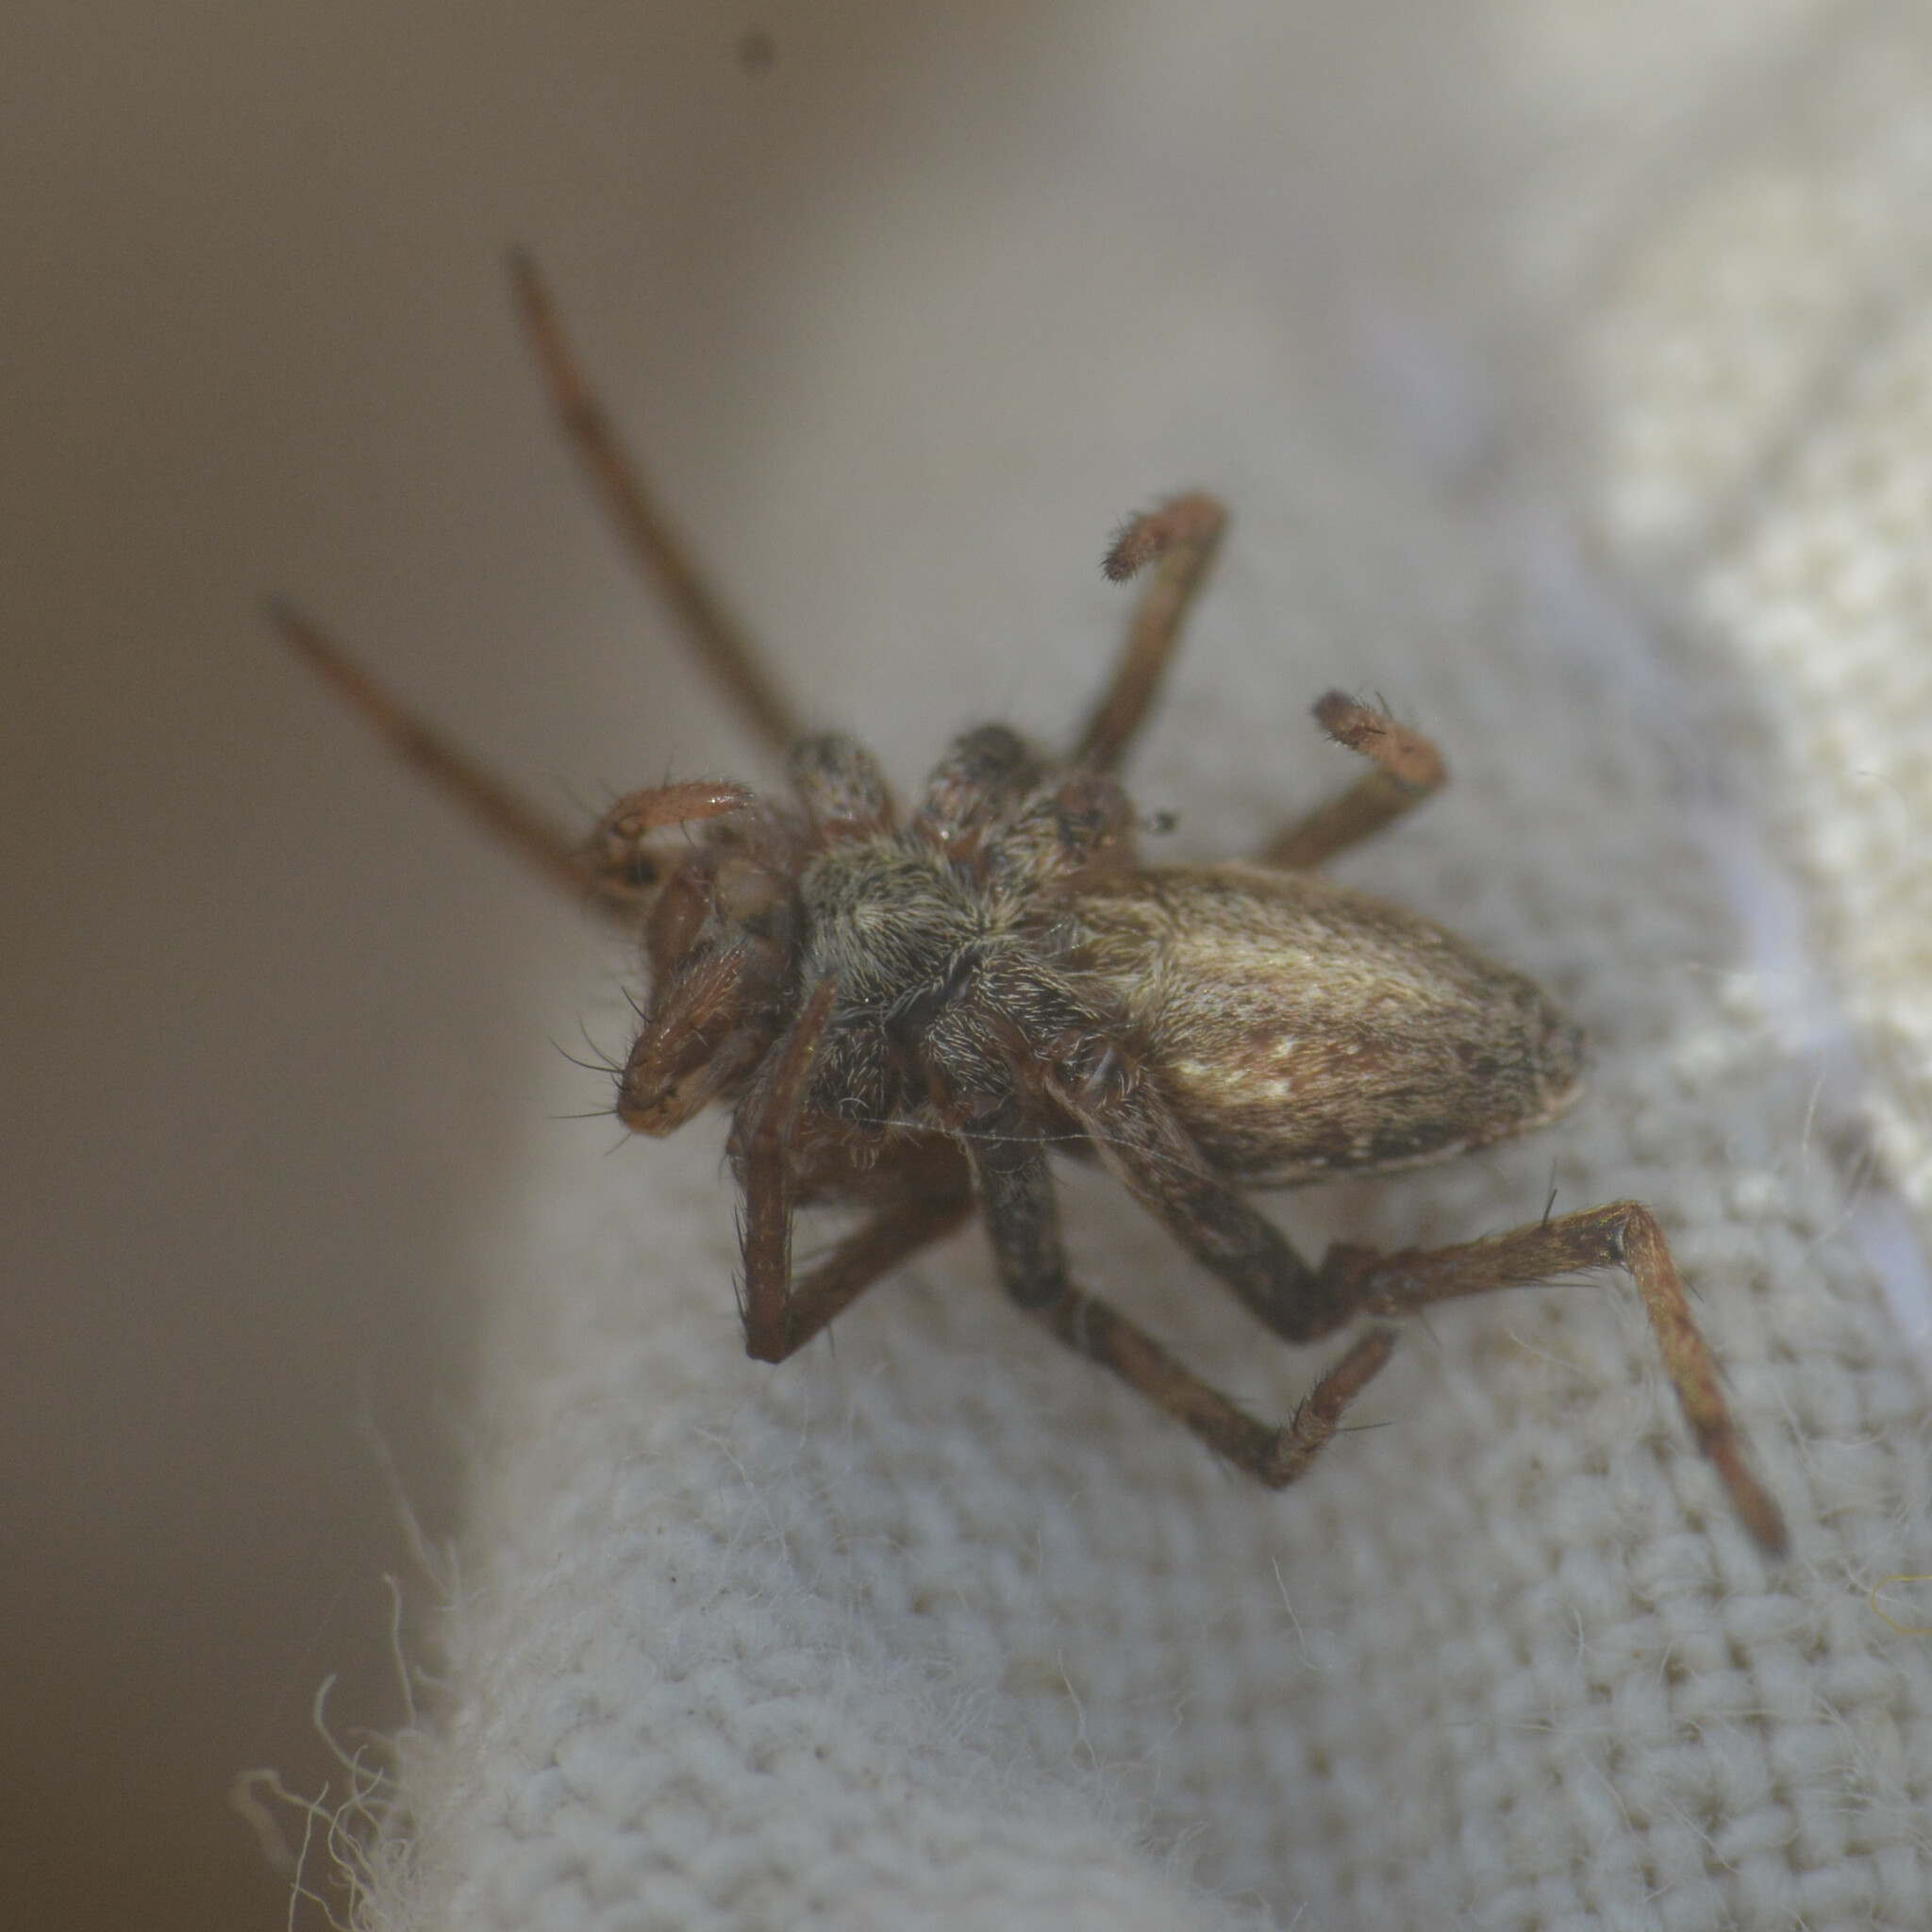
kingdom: Animalia
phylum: Arthropoda
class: Arachnida
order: Araneae
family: Pisauridae
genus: Pisaura
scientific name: Pisaura mirabilis
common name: Tent spider
